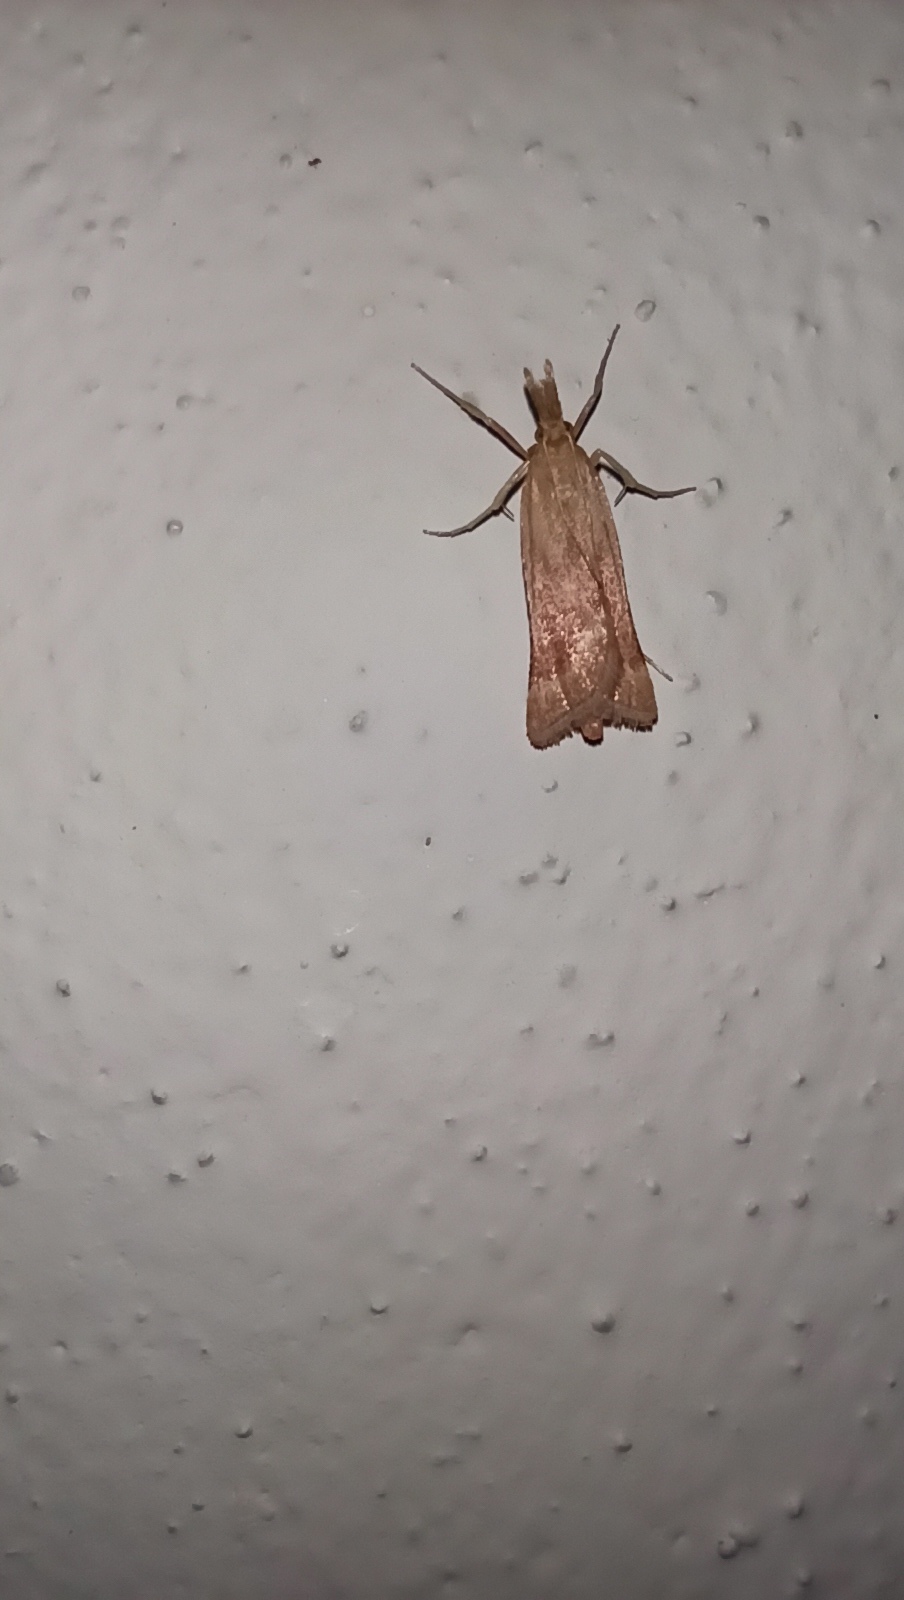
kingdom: Animalia
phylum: Arthropoda
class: Insecta
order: Lepidoptera
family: Pyralidae
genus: Synaphe
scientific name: Synaphe punctalis
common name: Long-legged tabby
